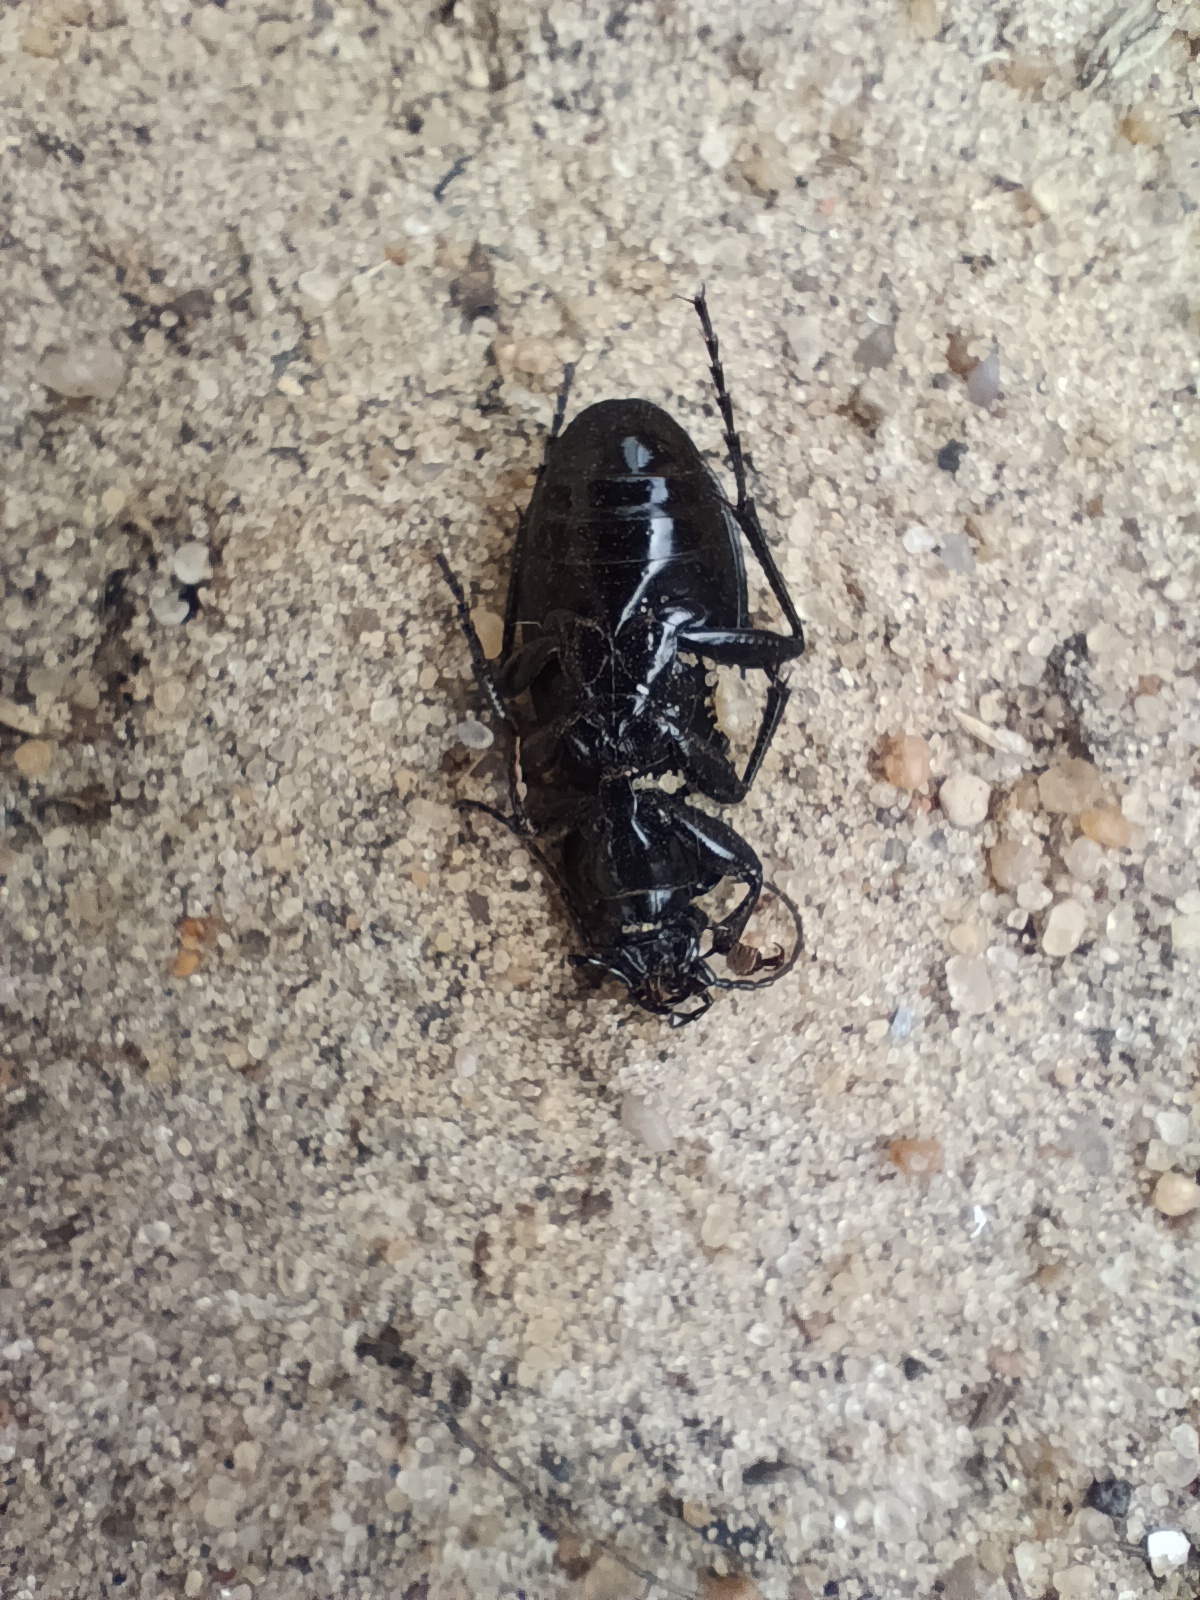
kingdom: Animalia
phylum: Arthropoda
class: Insecta
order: Coleoptera
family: Carabidae
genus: Carabus
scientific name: Carabus nemoralis
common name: European ground beetle
